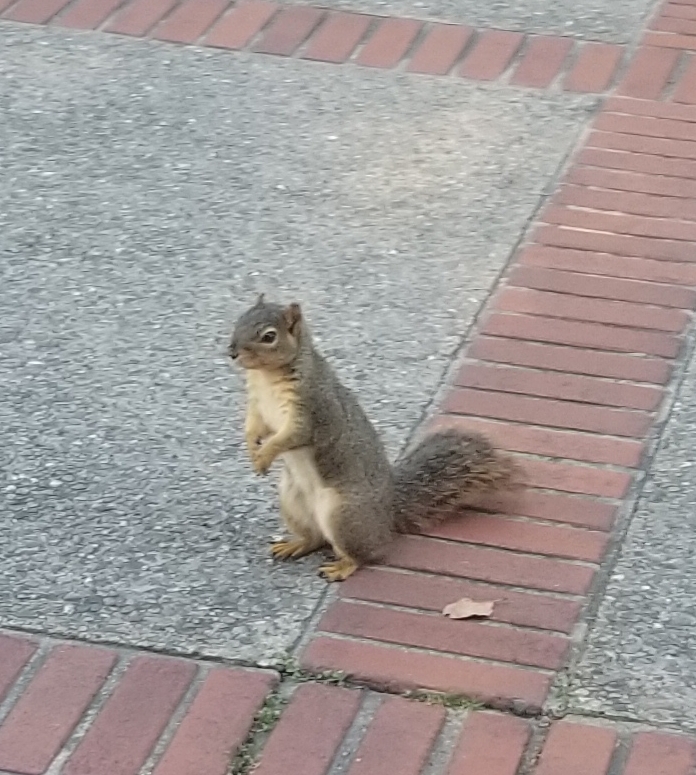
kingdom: Animalia
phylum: Chordata
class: Mammalia
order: Rodentia
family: Sciuridae
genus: Sciurus
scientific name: Sciurus niger
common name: Fox squirrel
